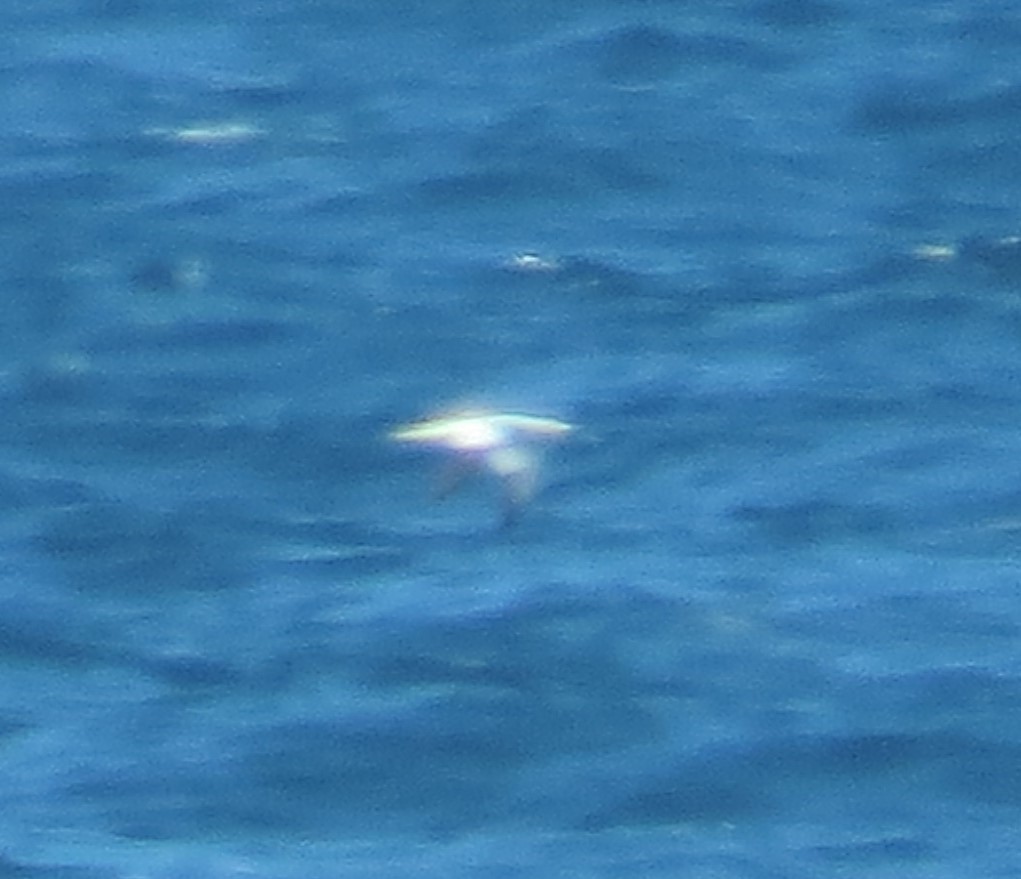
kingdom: Animalia
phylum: Chordata
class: Aves
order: Suliformes
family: Sulidae
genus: Morus
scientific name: Morus bassanus
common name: Northern gannet
